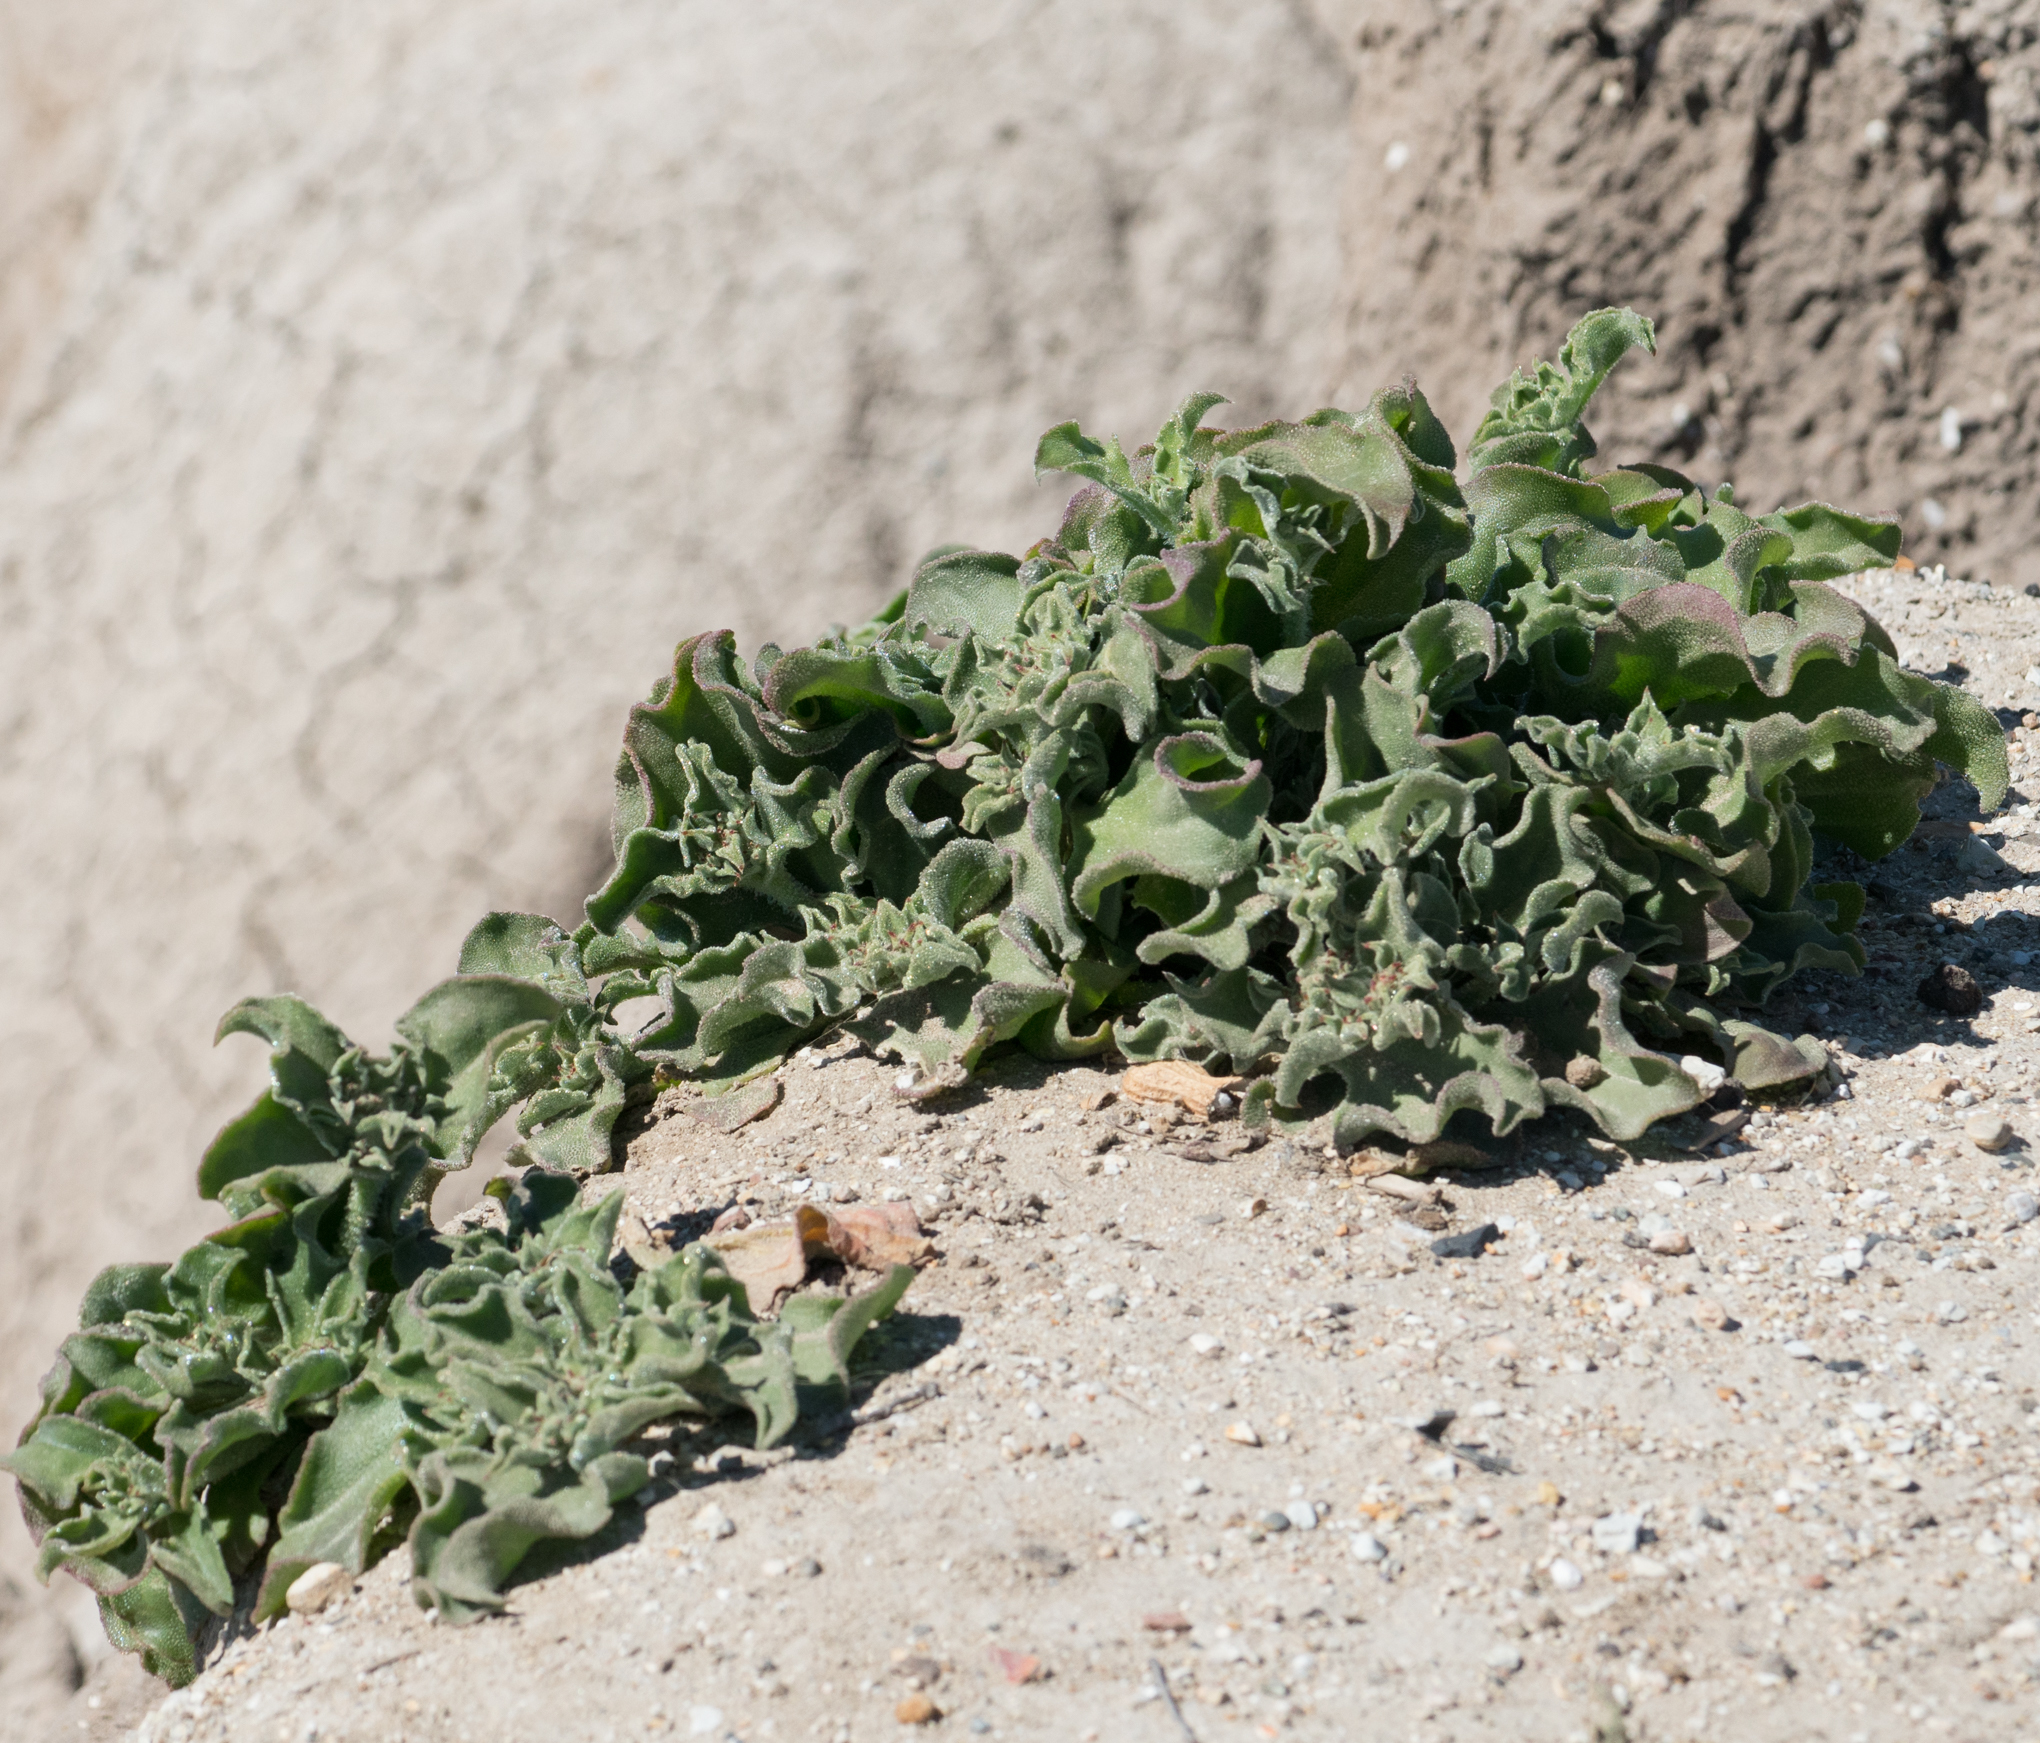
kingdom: Plantae
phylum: Tracheophyta
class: Magnoliopsida
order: Caryophyllales
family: Aizoaceae
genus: Mesembryanthemum
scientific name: Mesembryanthemum crystallinum
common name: Common iceplant
